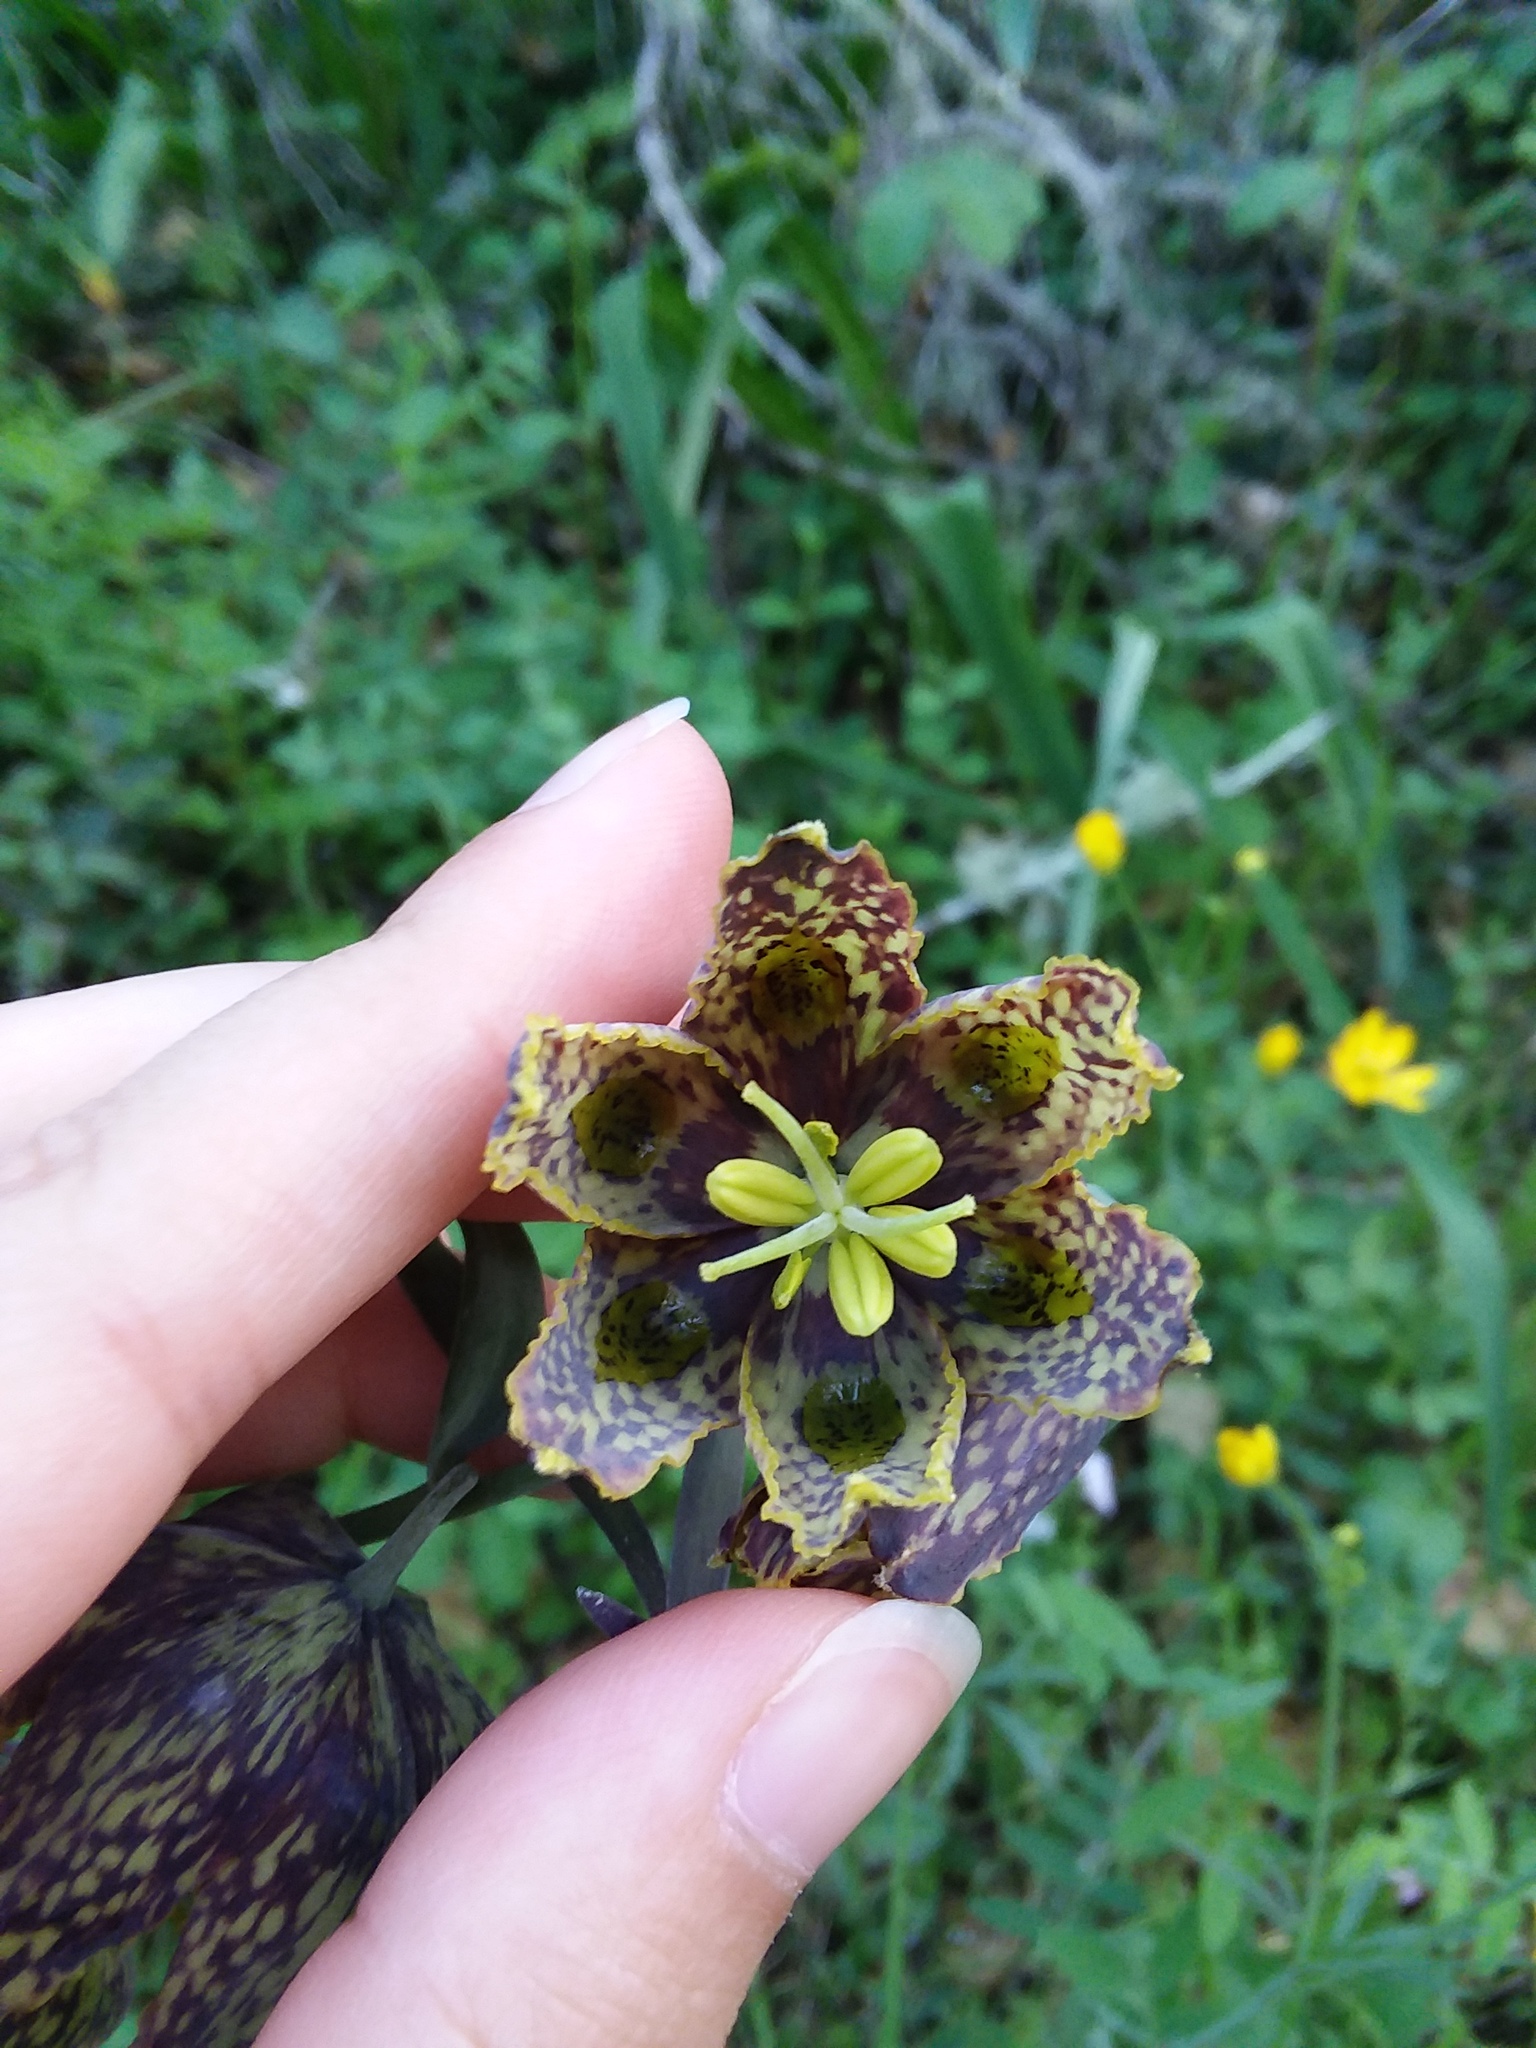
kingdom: Plantae
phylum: Tracheophyta
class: Liliopsida
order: Liliales
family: Liliaceae
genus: Fritillaria
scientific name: Fritillaria affinis
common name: Ojai fritillary
